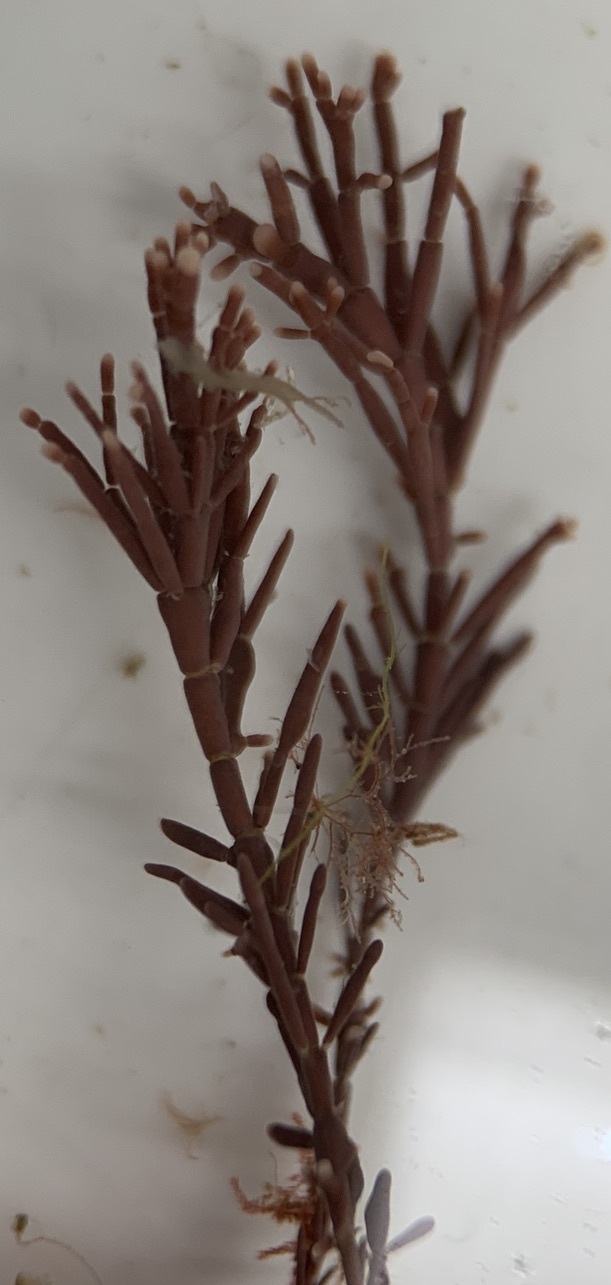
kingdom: Plantae
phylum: Rhodophyta
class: Florideophyceae
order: Corallinales
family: Corallinaceae
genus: Corallina
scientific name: Corallina officinalis
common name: Coral weed
